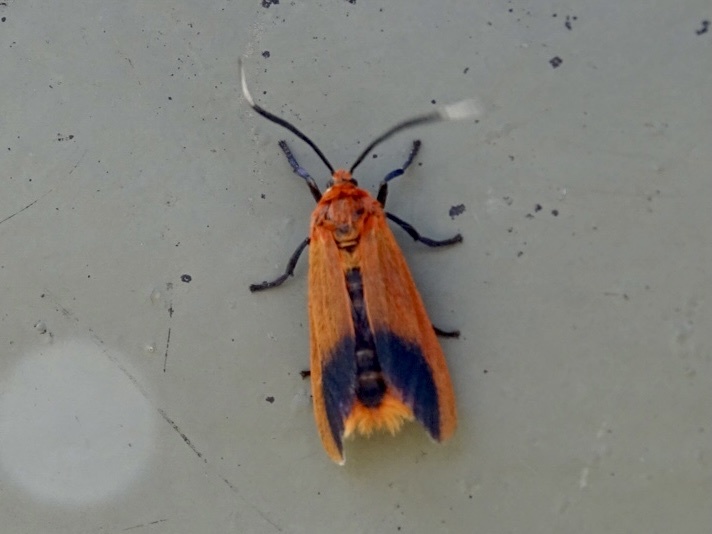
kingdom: Animalia
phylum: Arthropoda
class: Insecta
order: Lepidoptera
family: Phaudidae
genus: Phauda
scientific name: Phauda flammans
